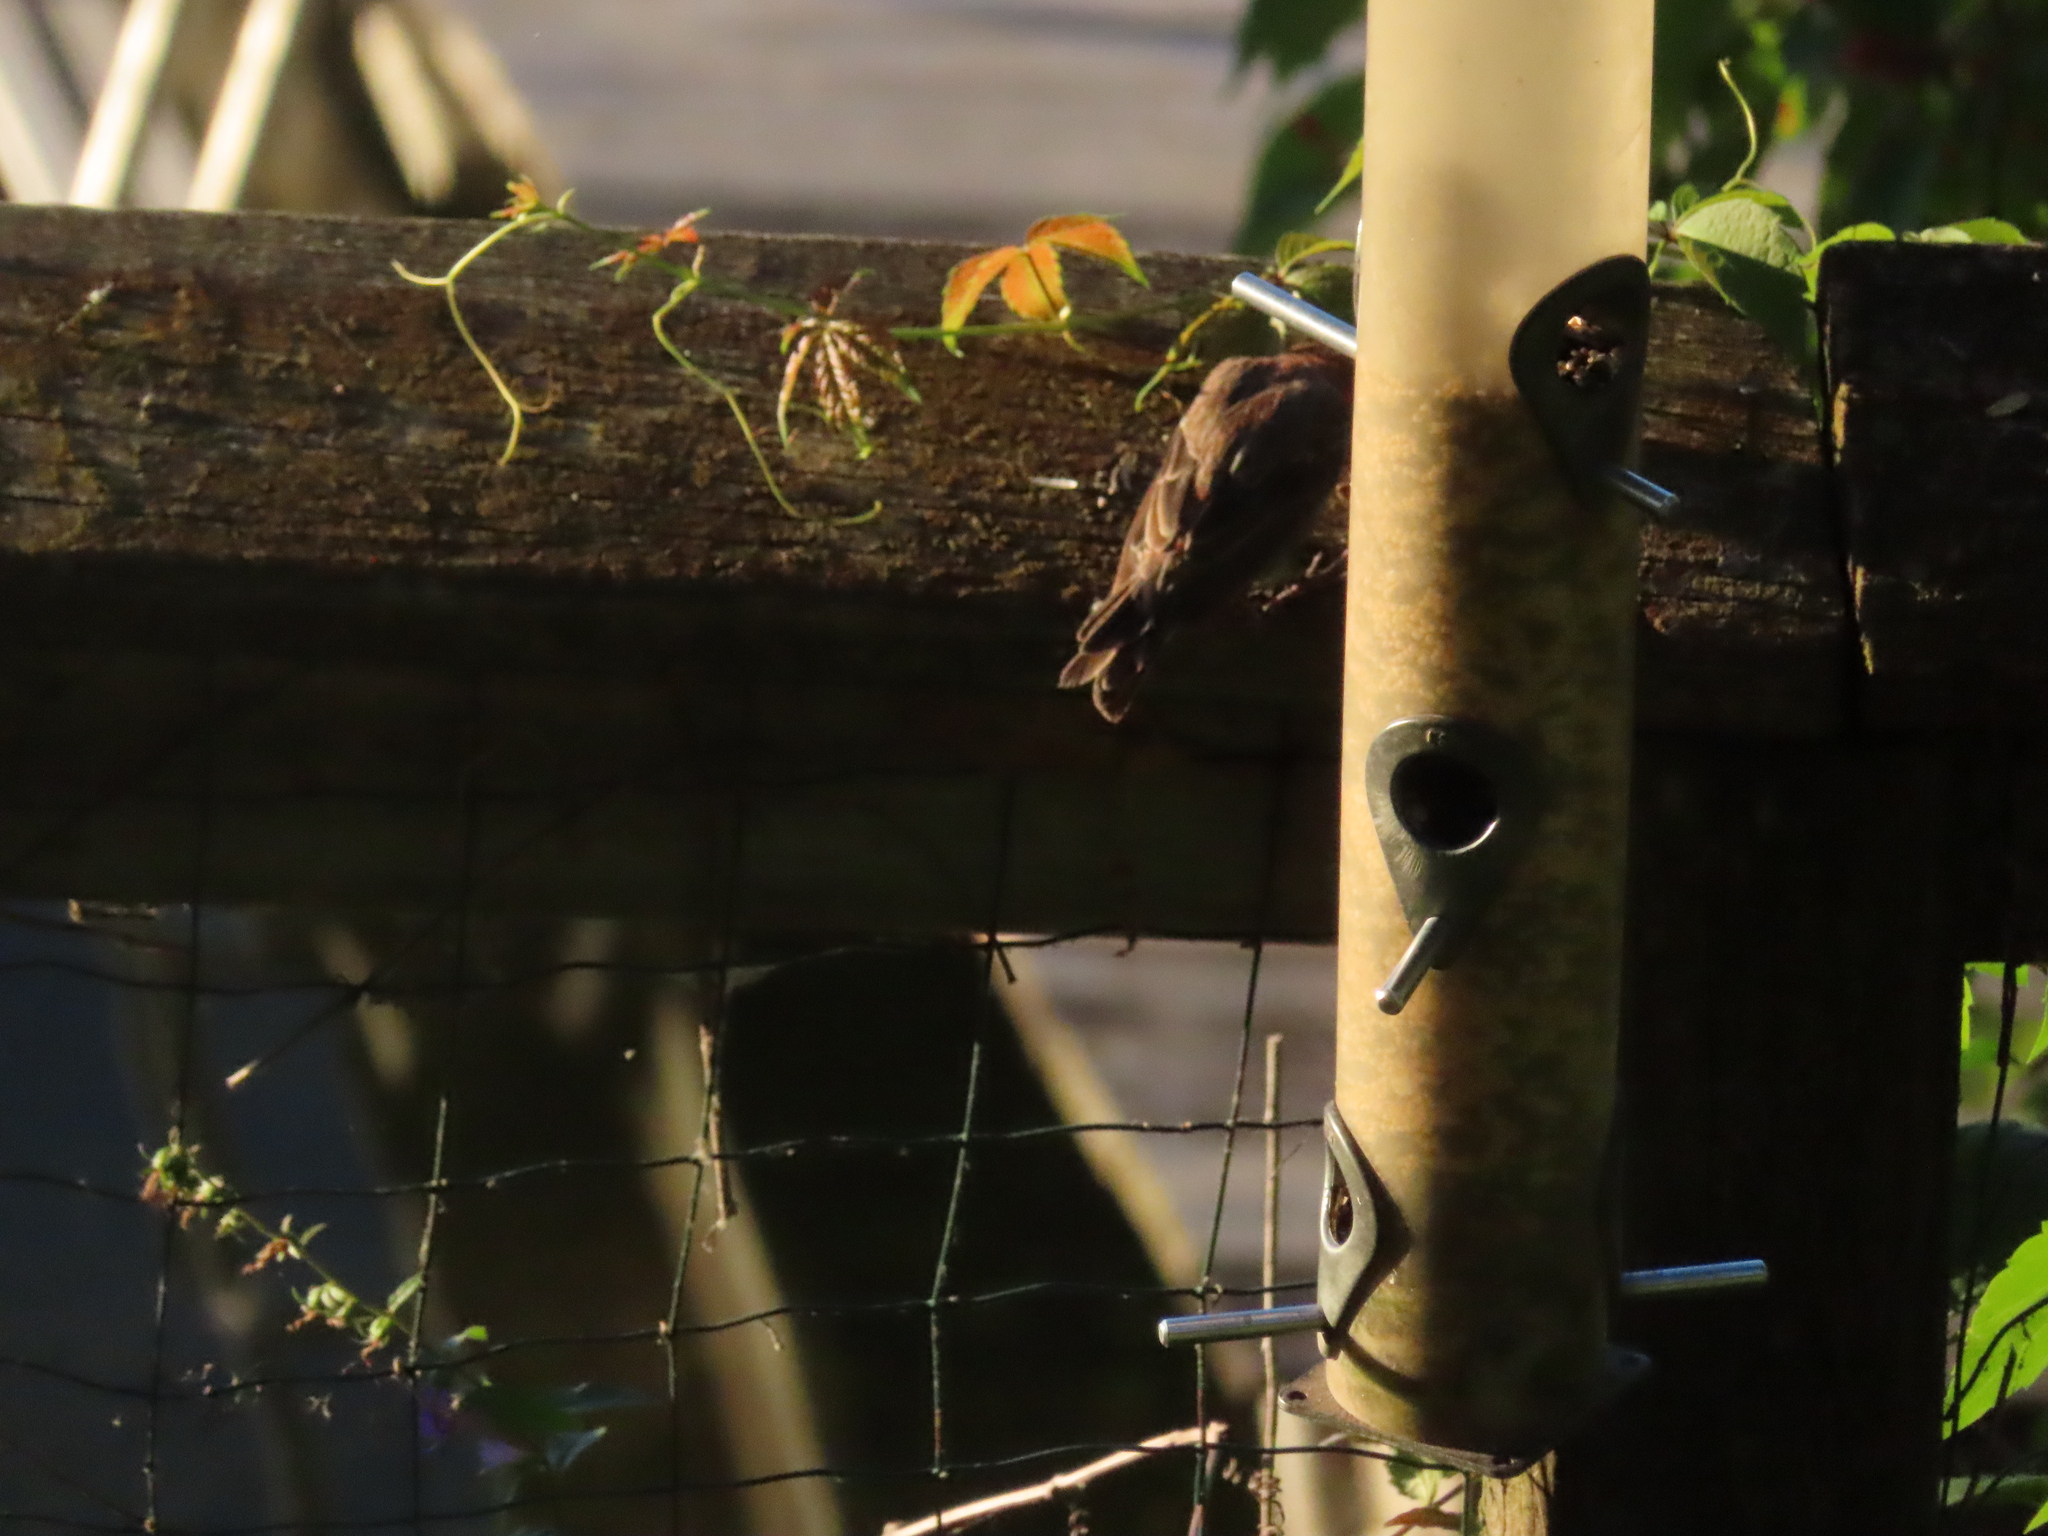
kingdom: Animalia
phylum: Chordata
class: Aves
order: Passeriformes
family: Fringillidae
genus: Haemorhous
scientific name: Haemorhous mexicanus
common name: House finch
